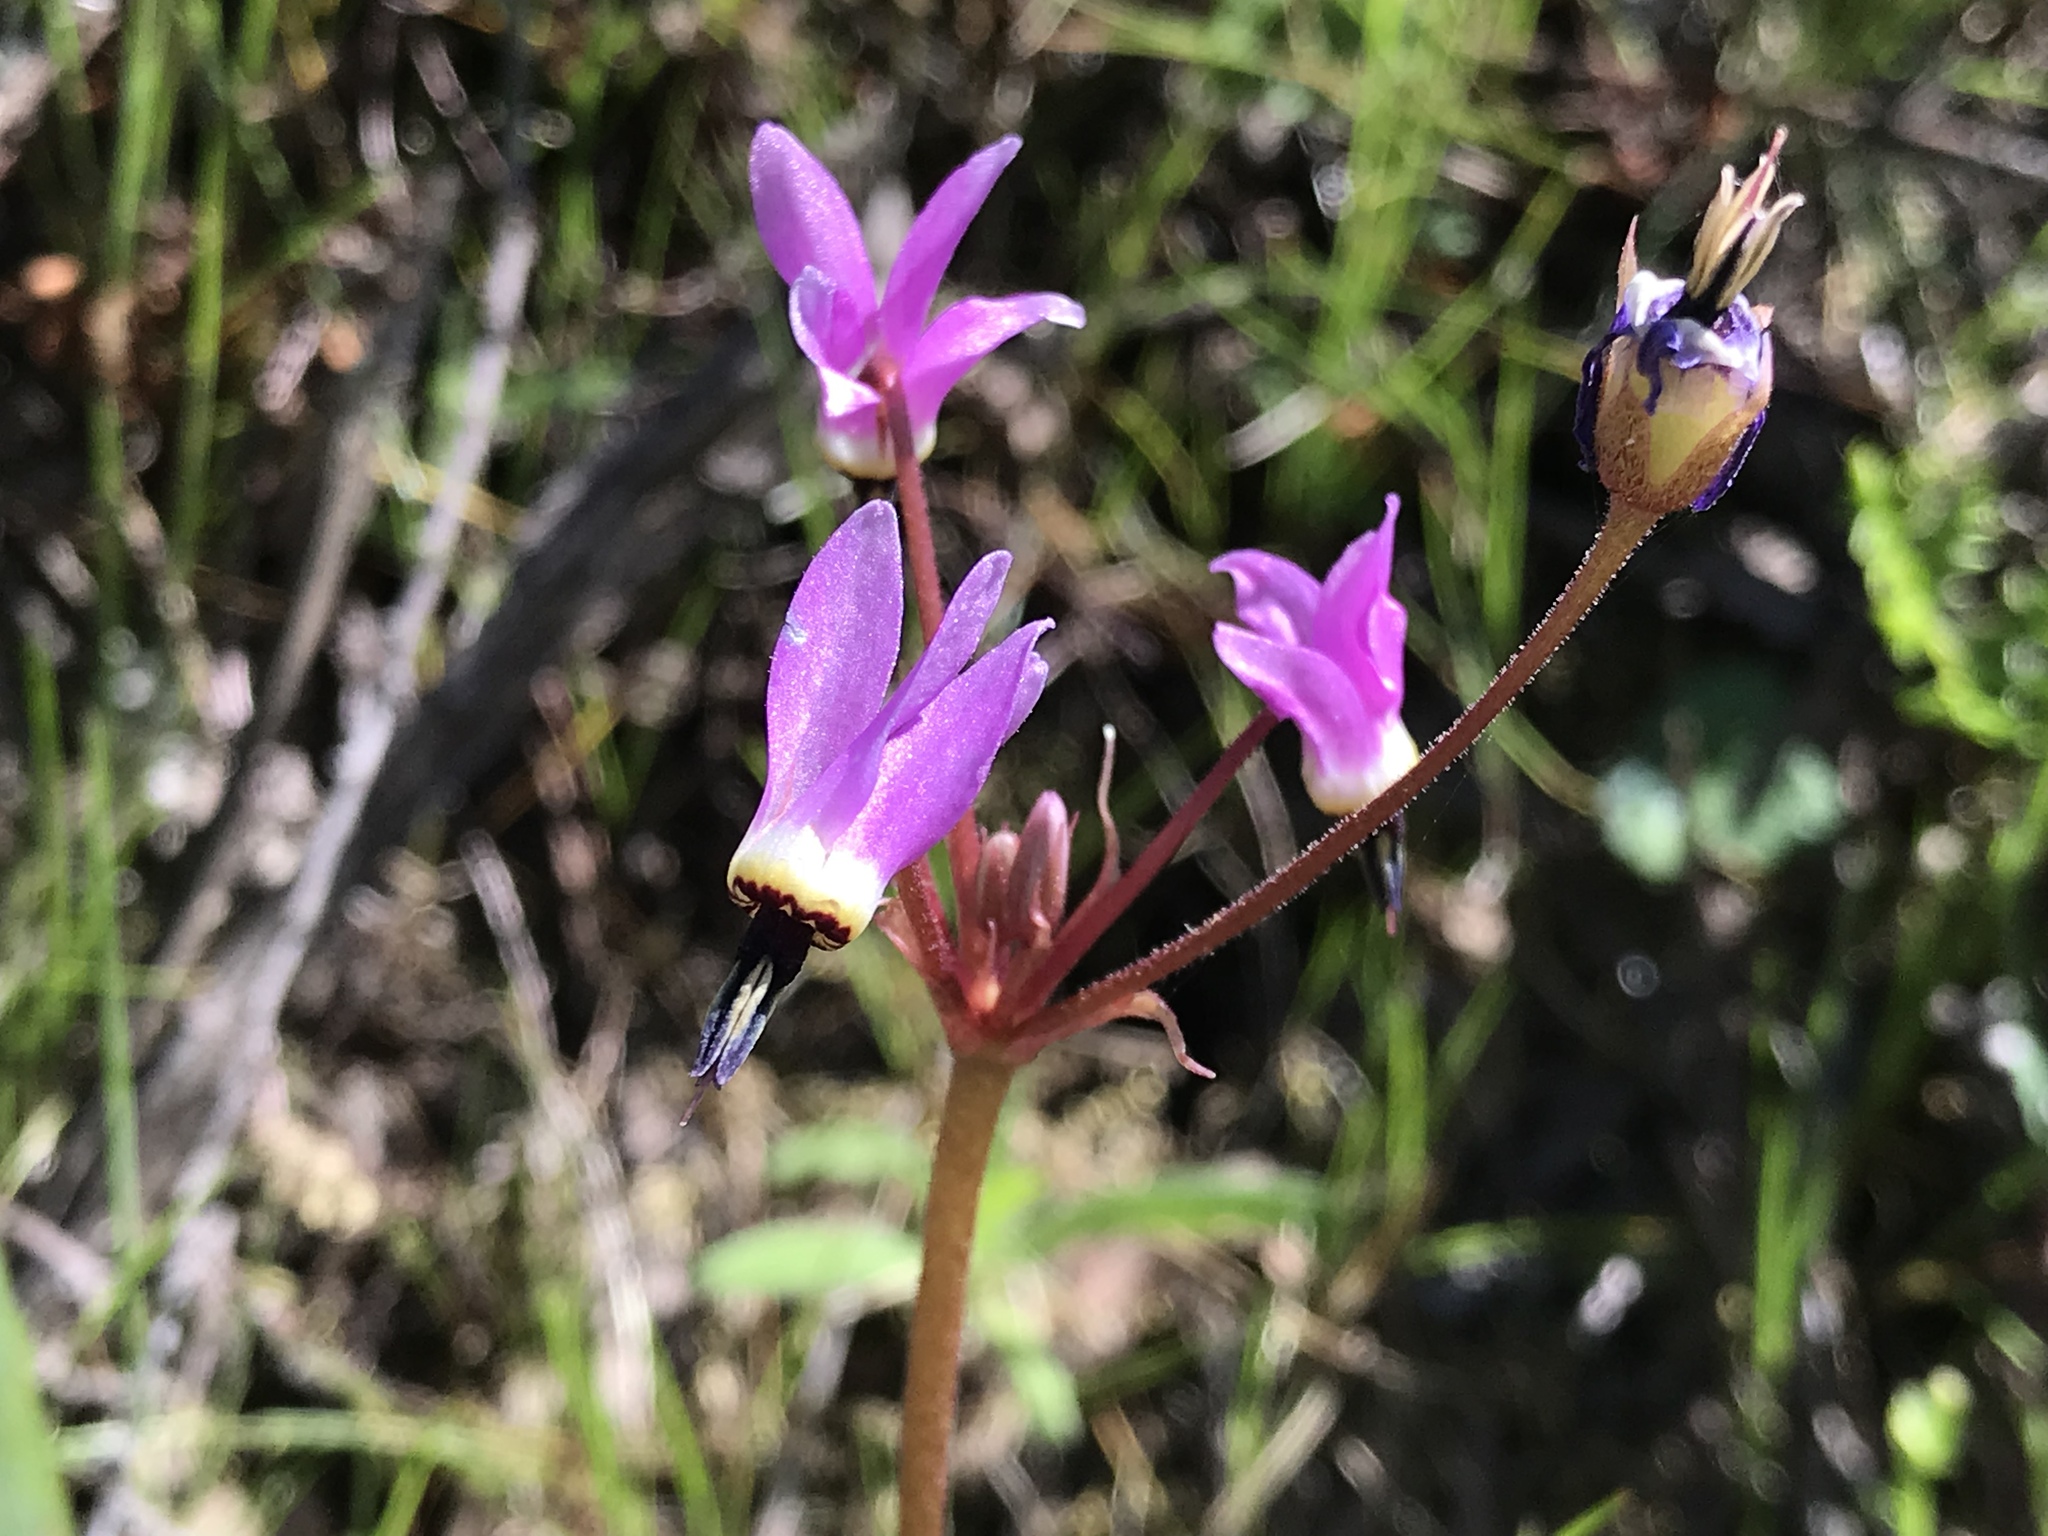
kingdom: Plantae
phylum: Tracheophyta
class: Magnoliopsida
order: Ericales
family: Primulaceae
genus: Dodecatheon
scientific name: Dodecatheon hendersonii
